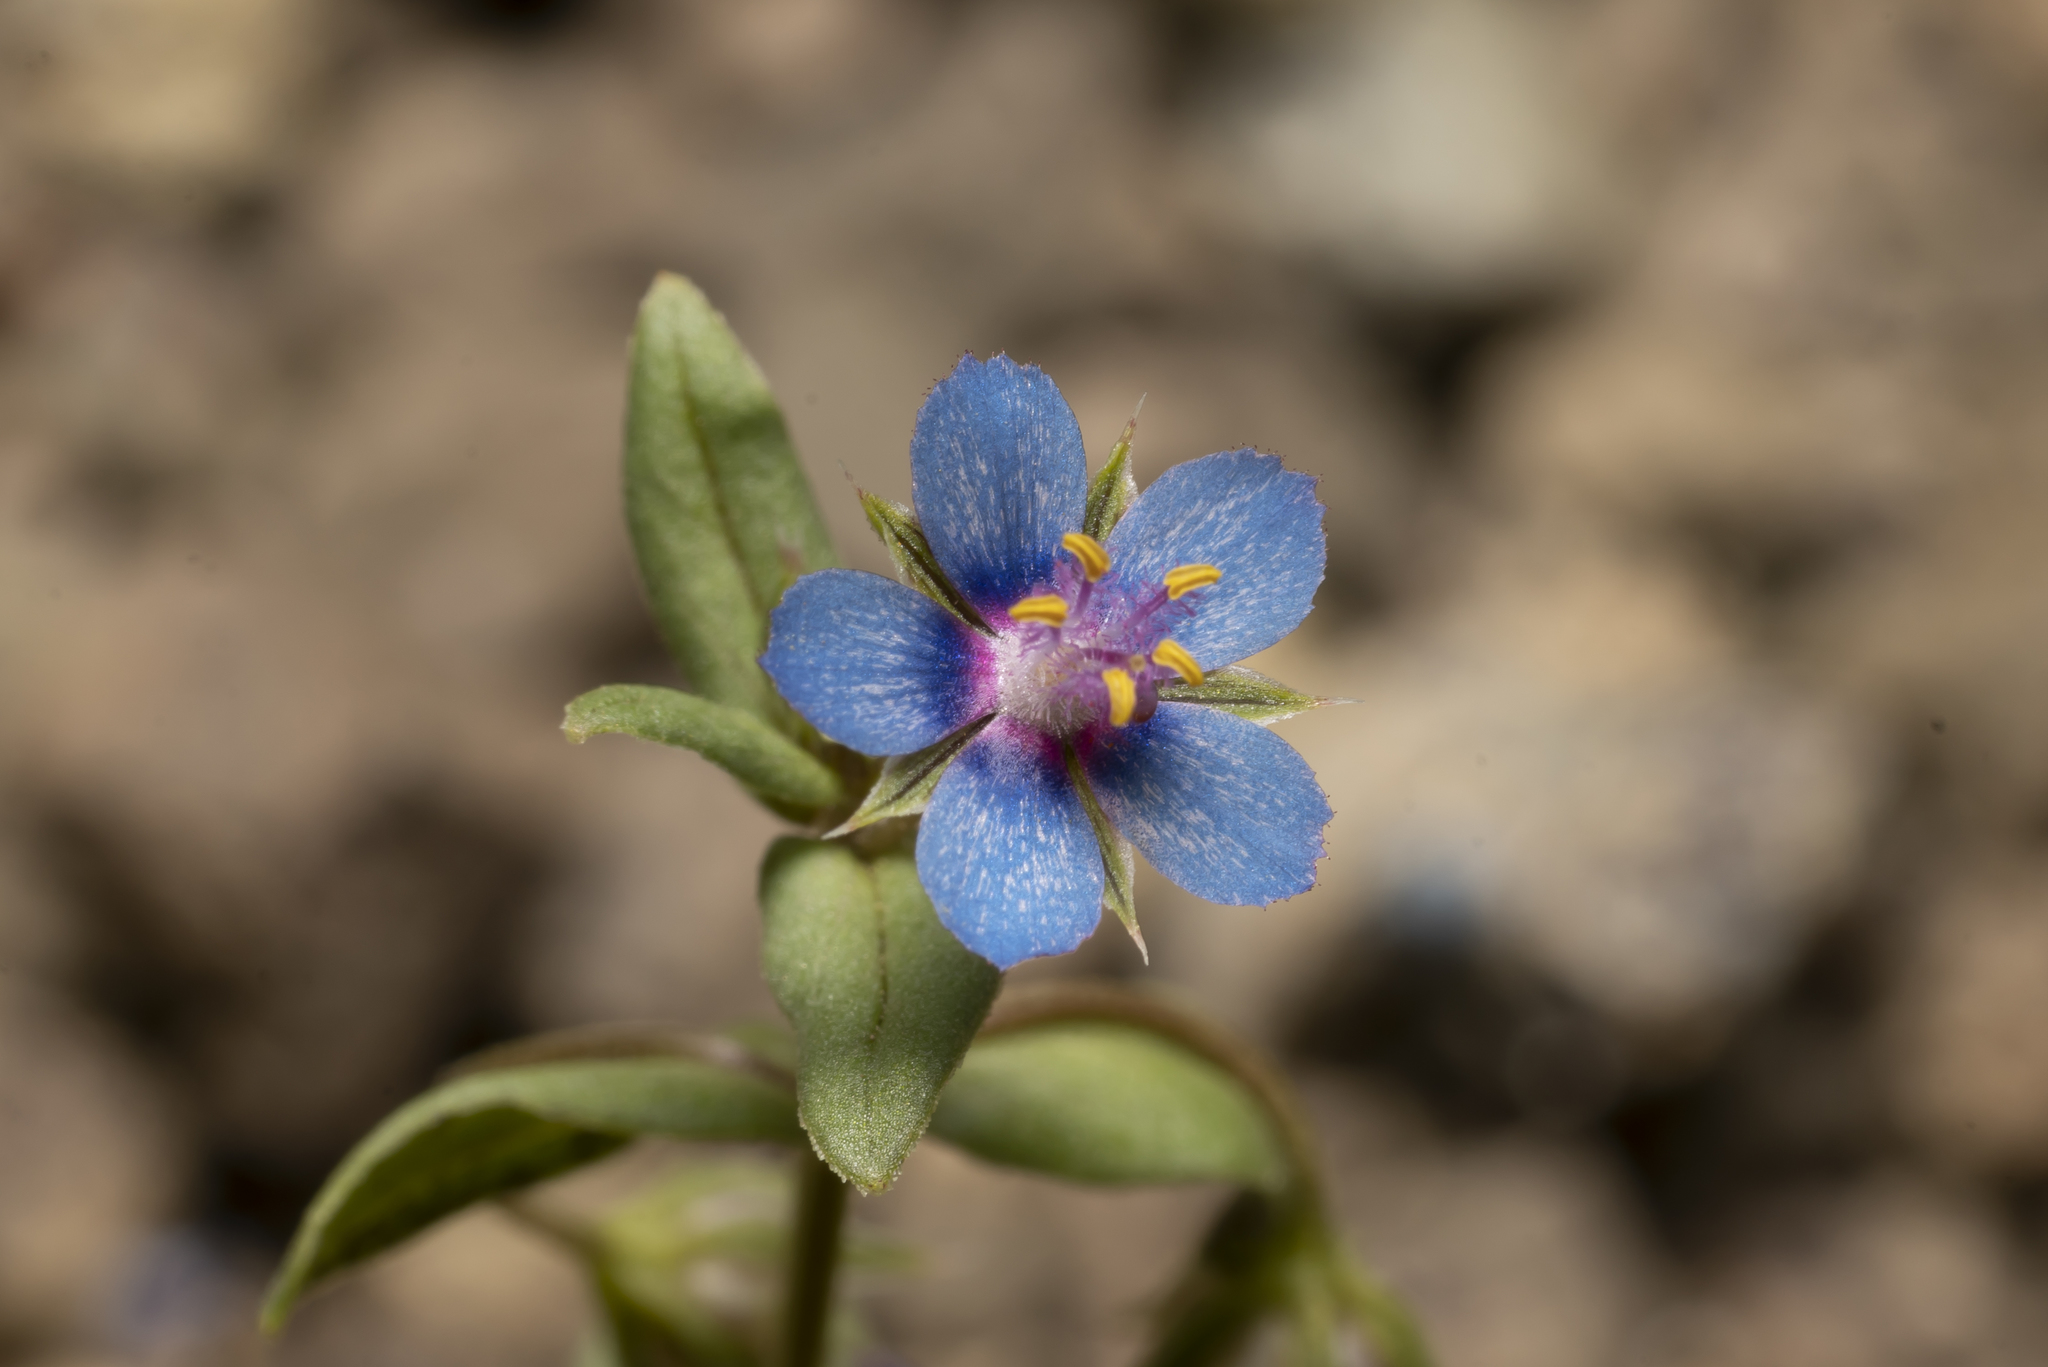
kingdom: Plantae
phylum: Tracheophyta
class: Magnoliopsida
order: Ericales
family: Primulaceae
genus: Lysimachia
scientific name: Lysimachia loeflingii
